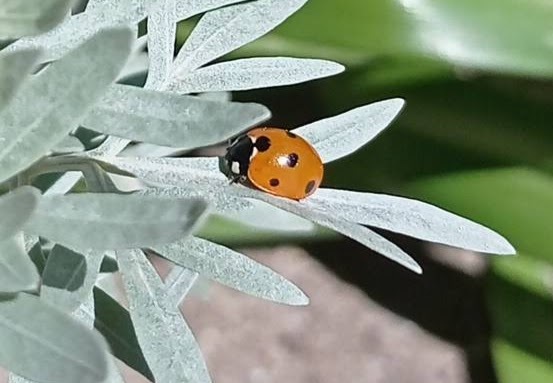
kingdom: Animalia
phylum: Arthropoda
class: Insecta
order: Coleoptera
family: Coccinellidae
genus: Coccinella
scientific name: Coccinella septempunctata
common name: Sevenspotted lady beetle
